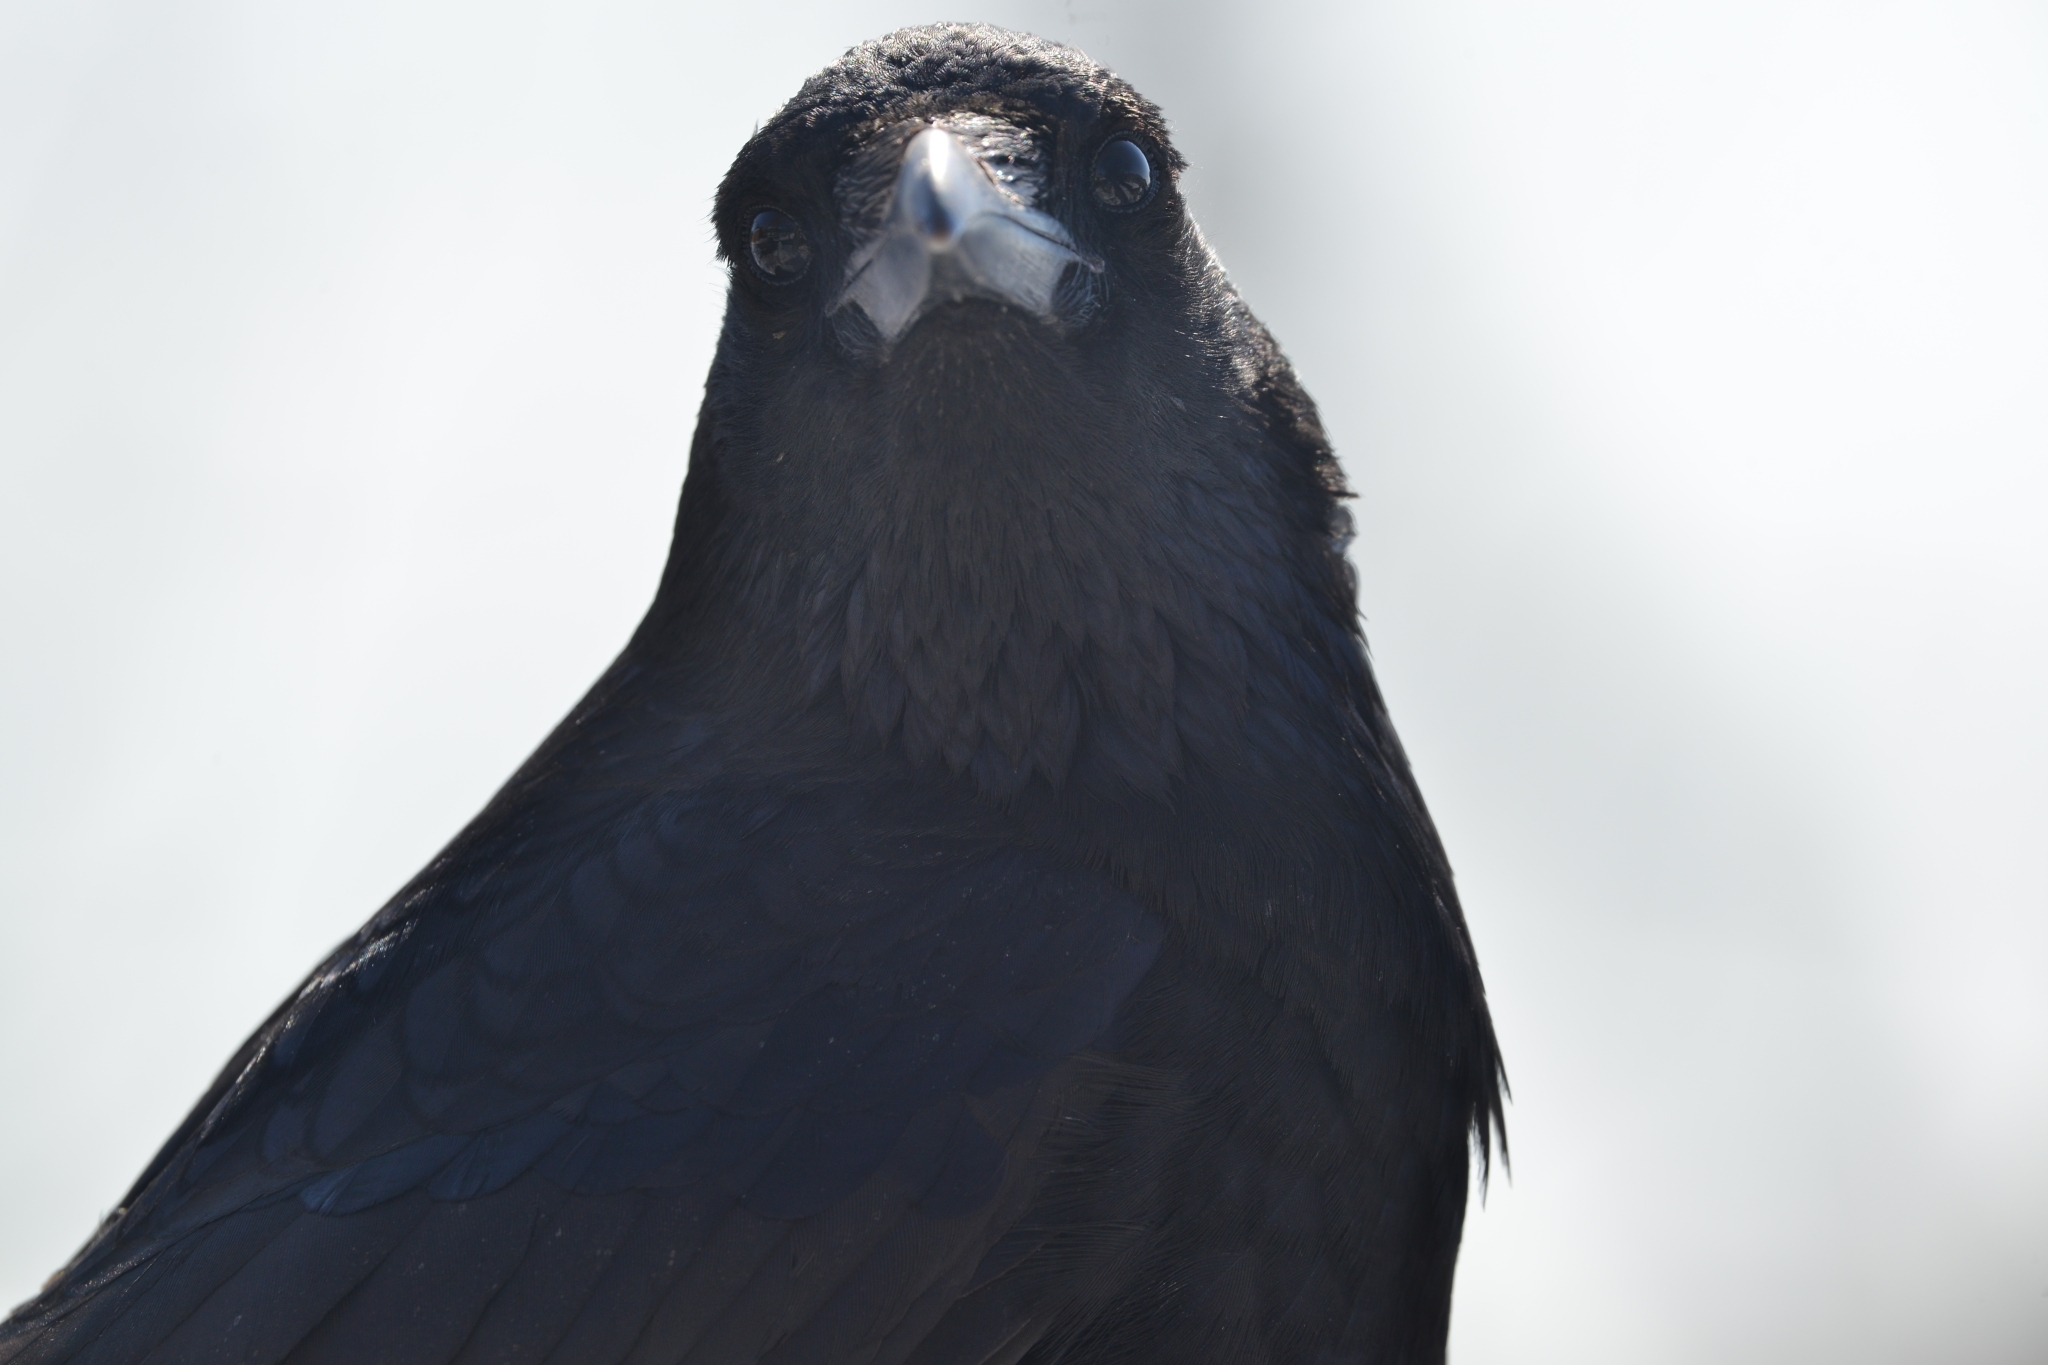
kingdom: Animalia
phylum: Chordata
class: Aves
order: Passeriformes
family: Corvidae
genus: Corvus
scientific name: Corvus corone
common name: Carrion crow
